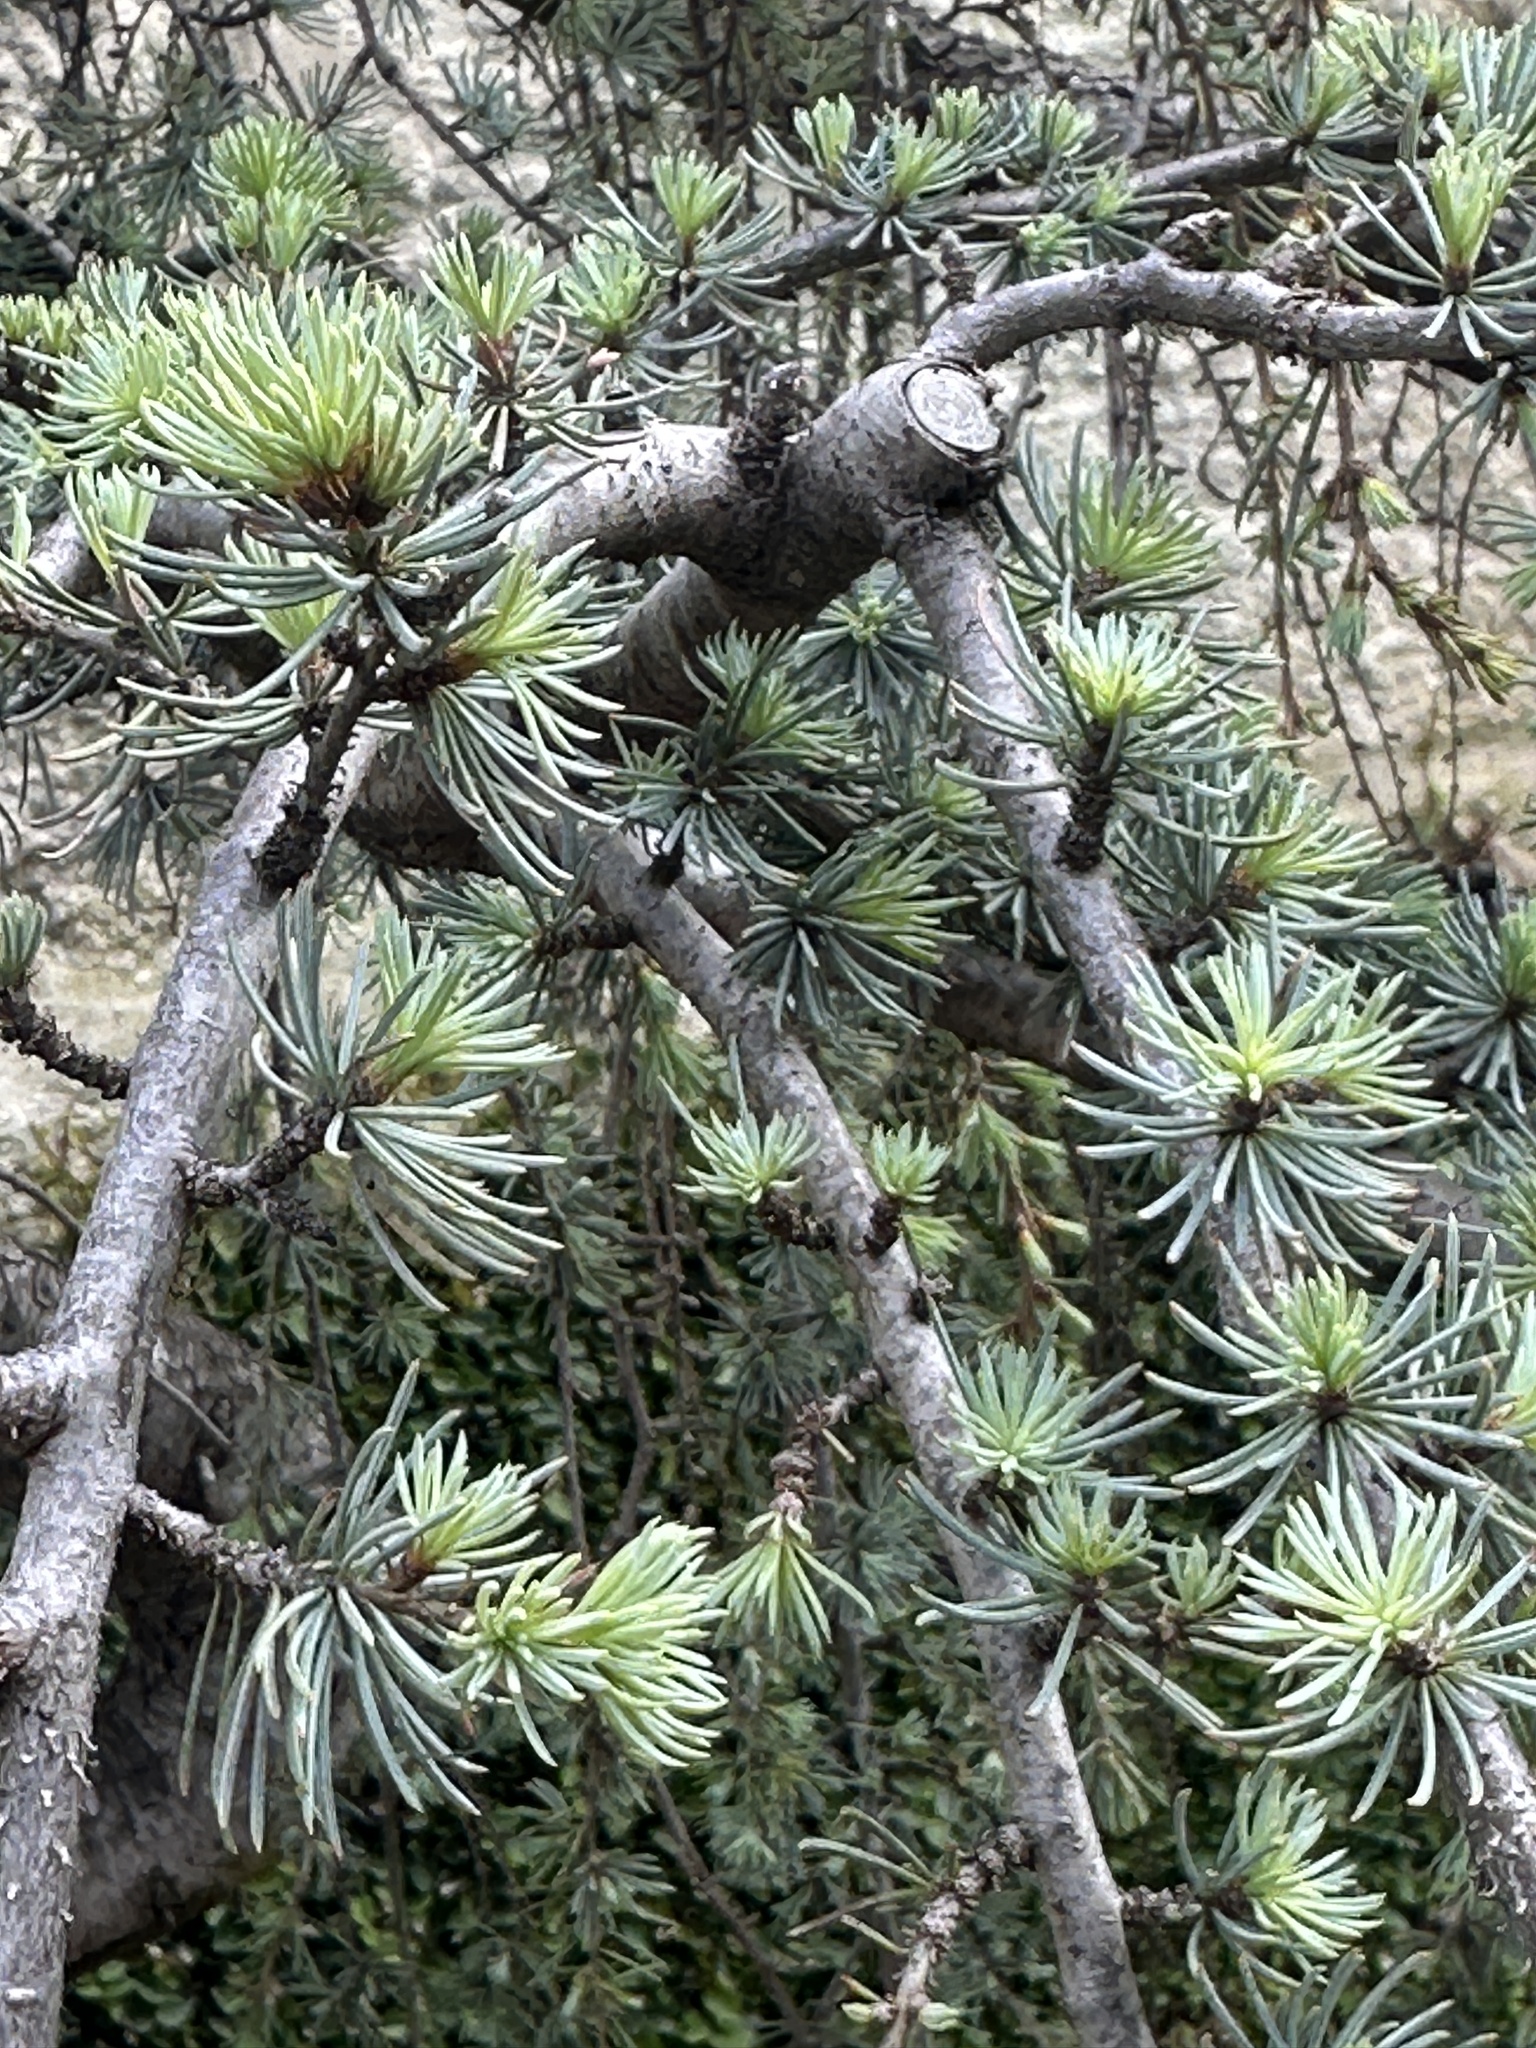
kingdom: Plantae
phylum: Tracheophyta
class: Pinopsida
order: Pinales
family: Pinaceae
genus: Cedrus
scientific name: Cedrus atlantica
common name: Atlas cedar
